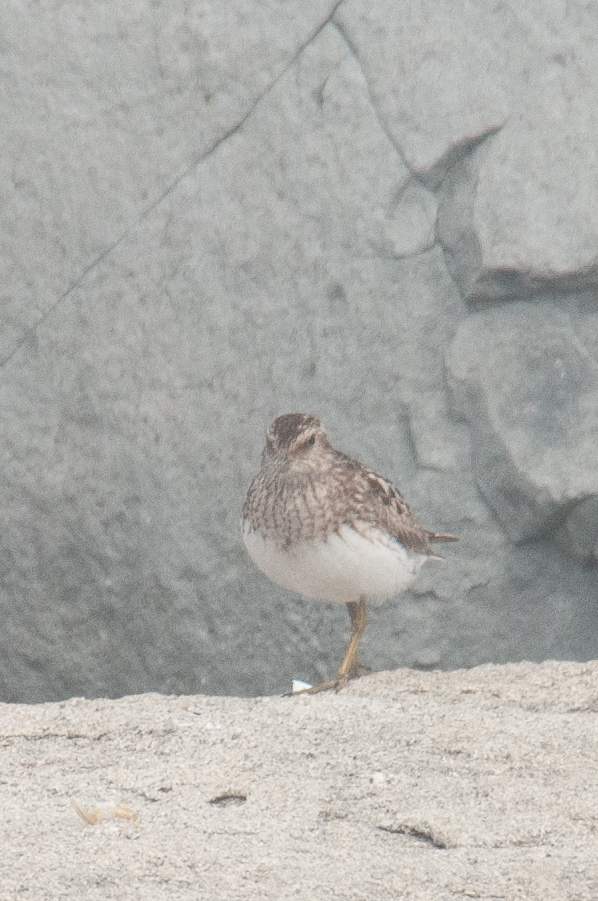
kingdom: Animalia
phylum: Chordata
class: Aves
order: Charadriiformes
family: Scolopacidae
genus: Calidris
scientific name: Calidris minutilla
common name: Least sandpiper
